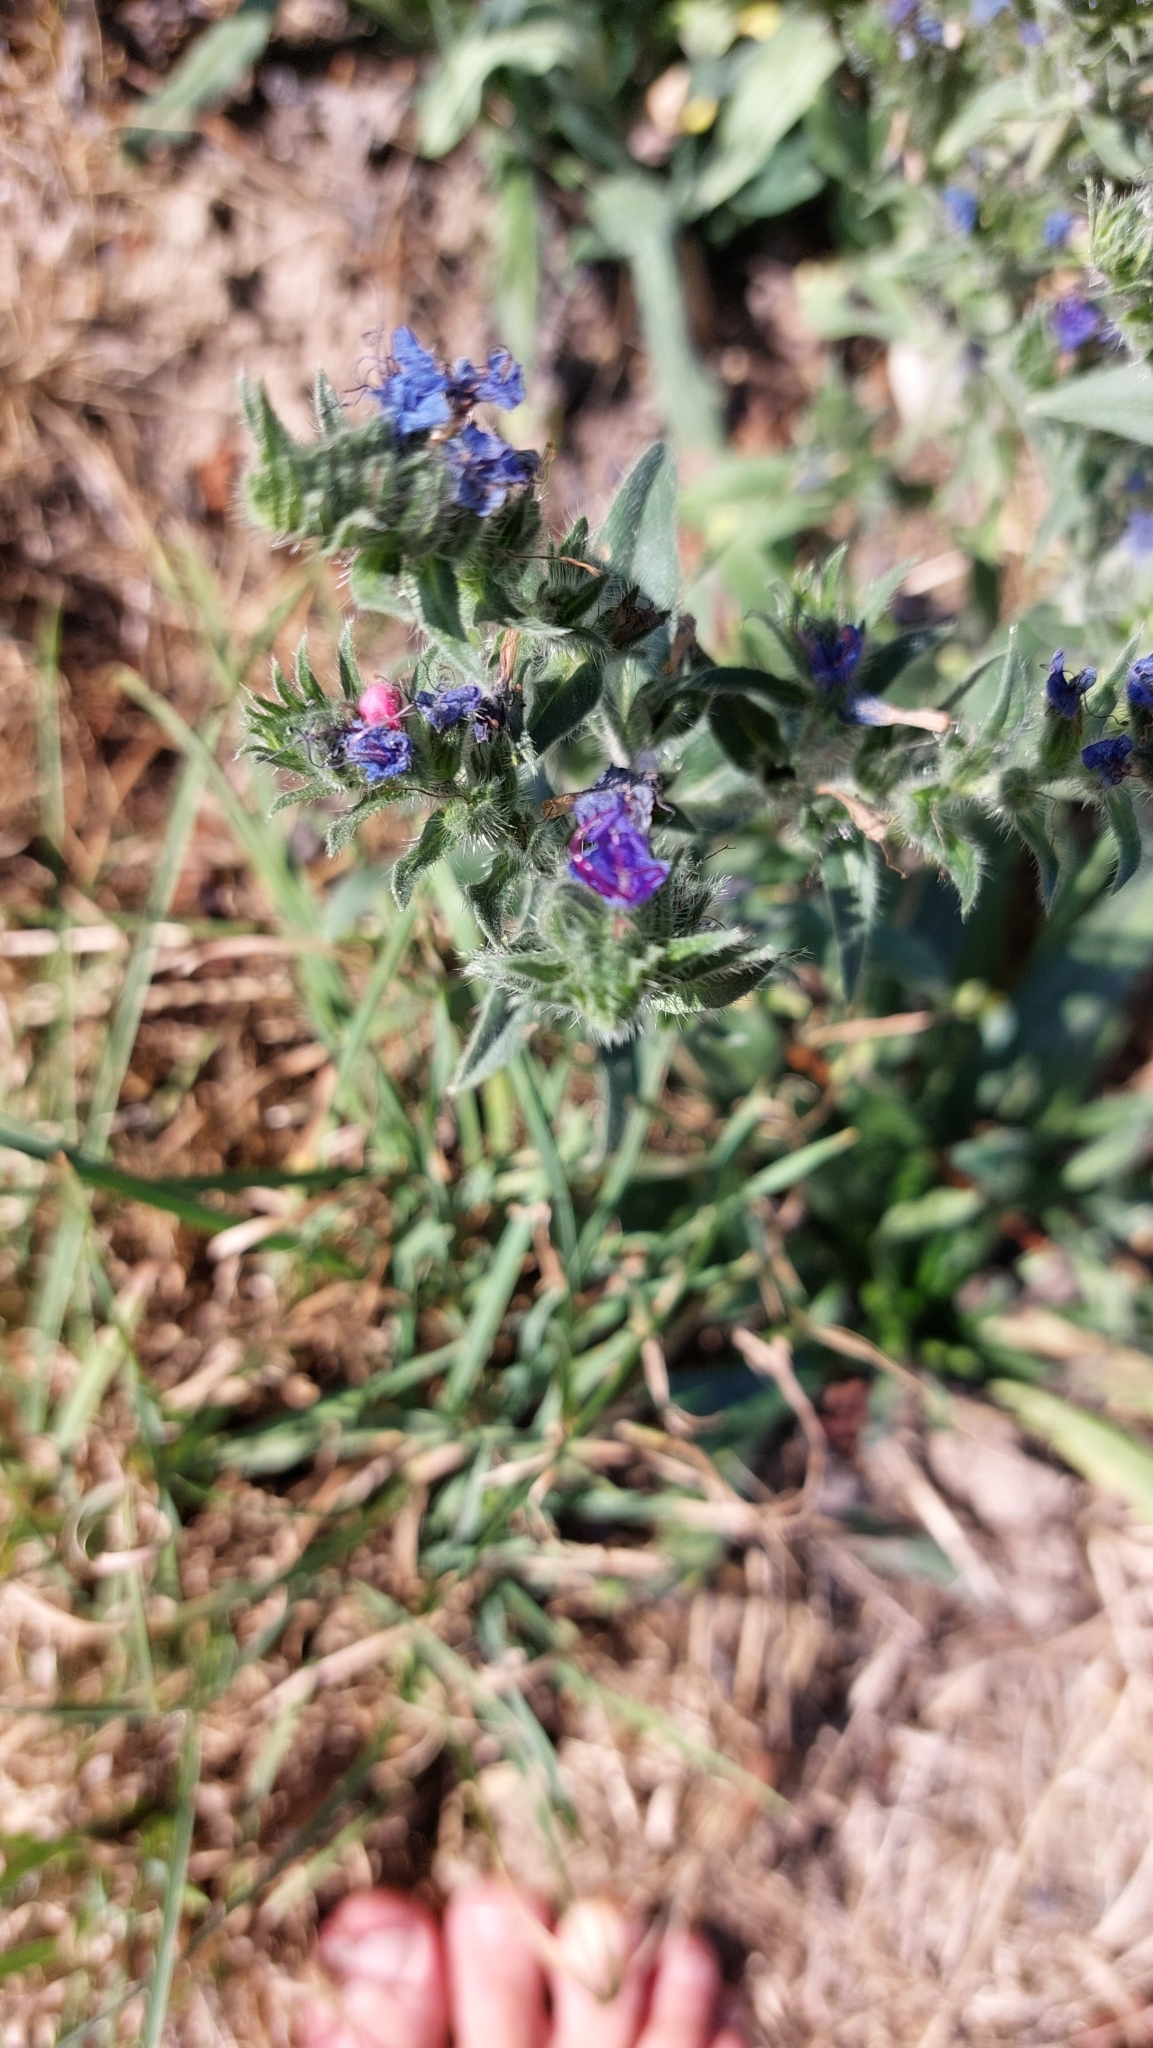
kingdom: Plantae
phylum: Tracheophyta
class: Magnoliopsida
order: Boraginales
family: Boraginaceae
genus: Echium
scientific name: Echium vulgare
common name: Common viper's bugloss
